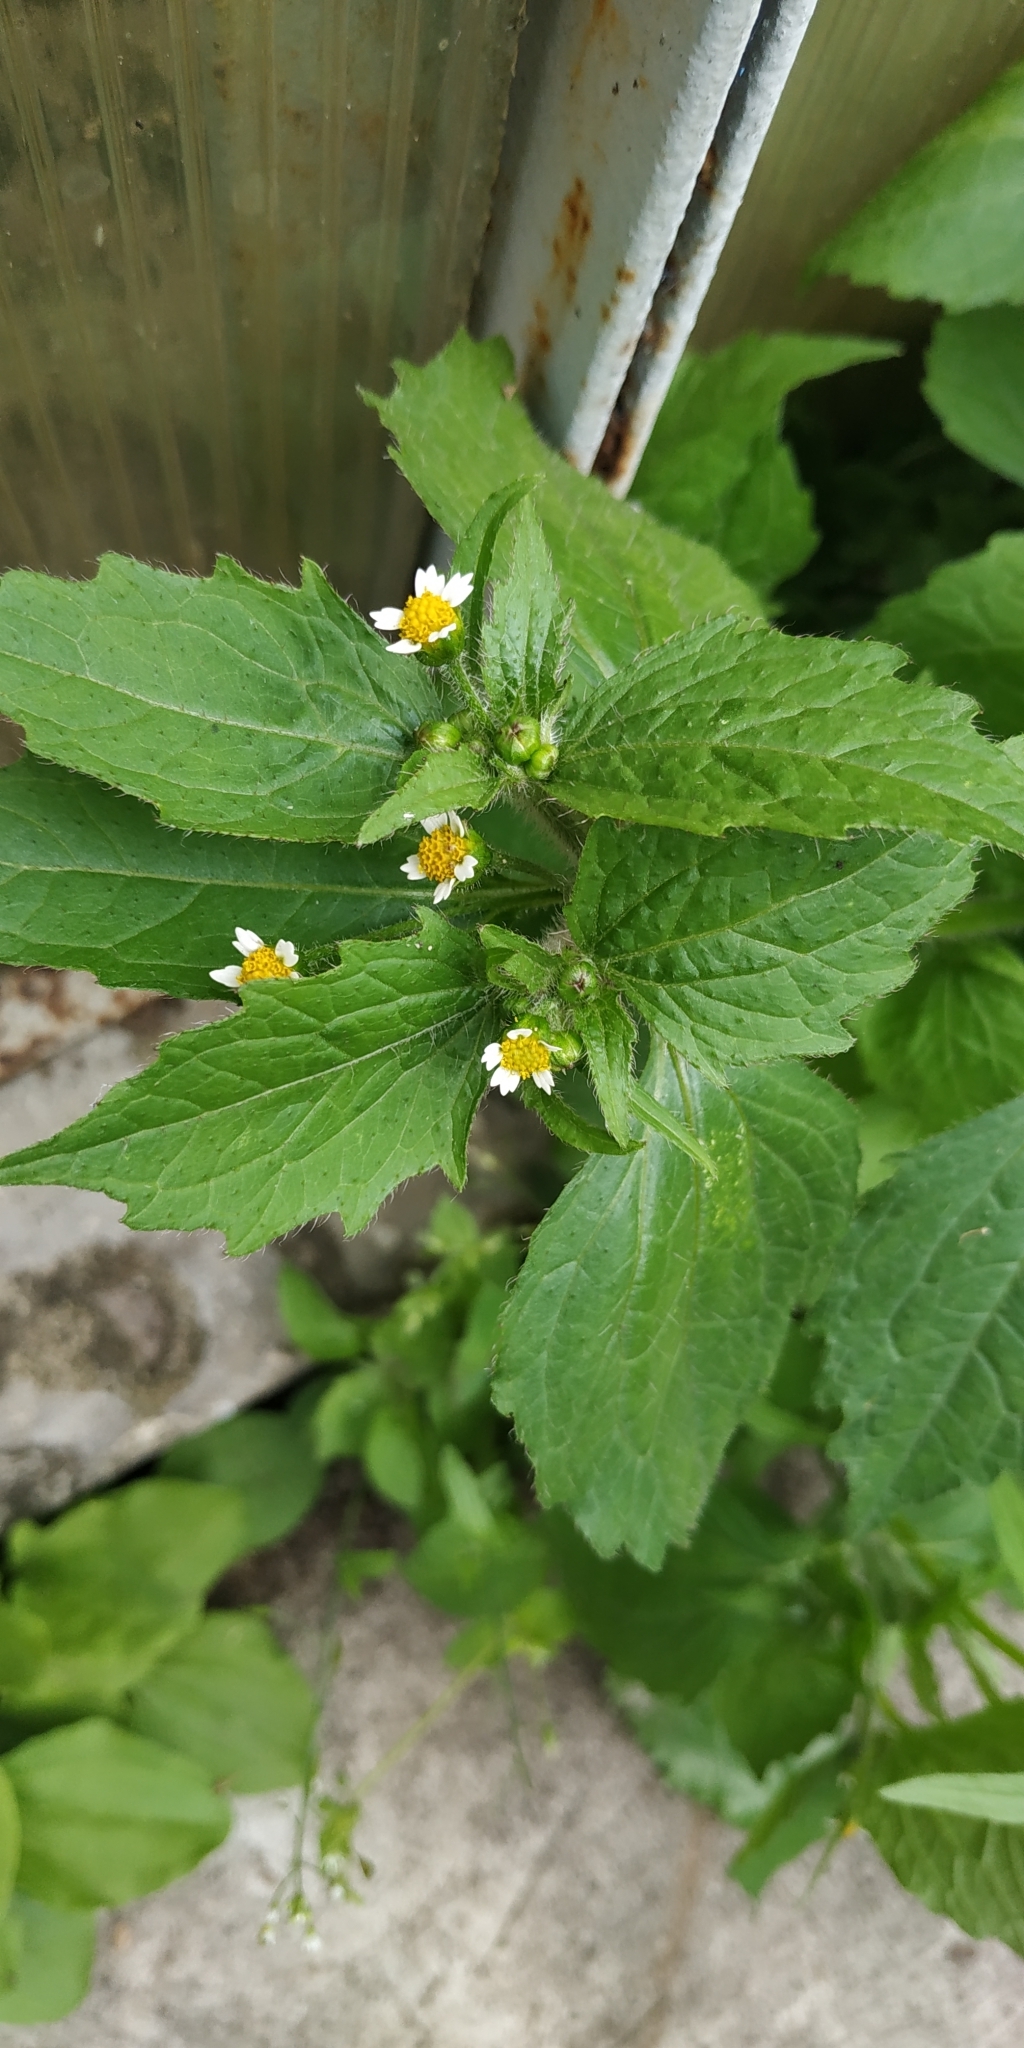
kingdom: Plantae
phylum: Tracheophyta
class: Magnoliopsida
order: Asterales
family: Asteraceae
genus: Galinsoga
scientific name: Galinsoga quadriradiata
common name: Shaggy soldier
